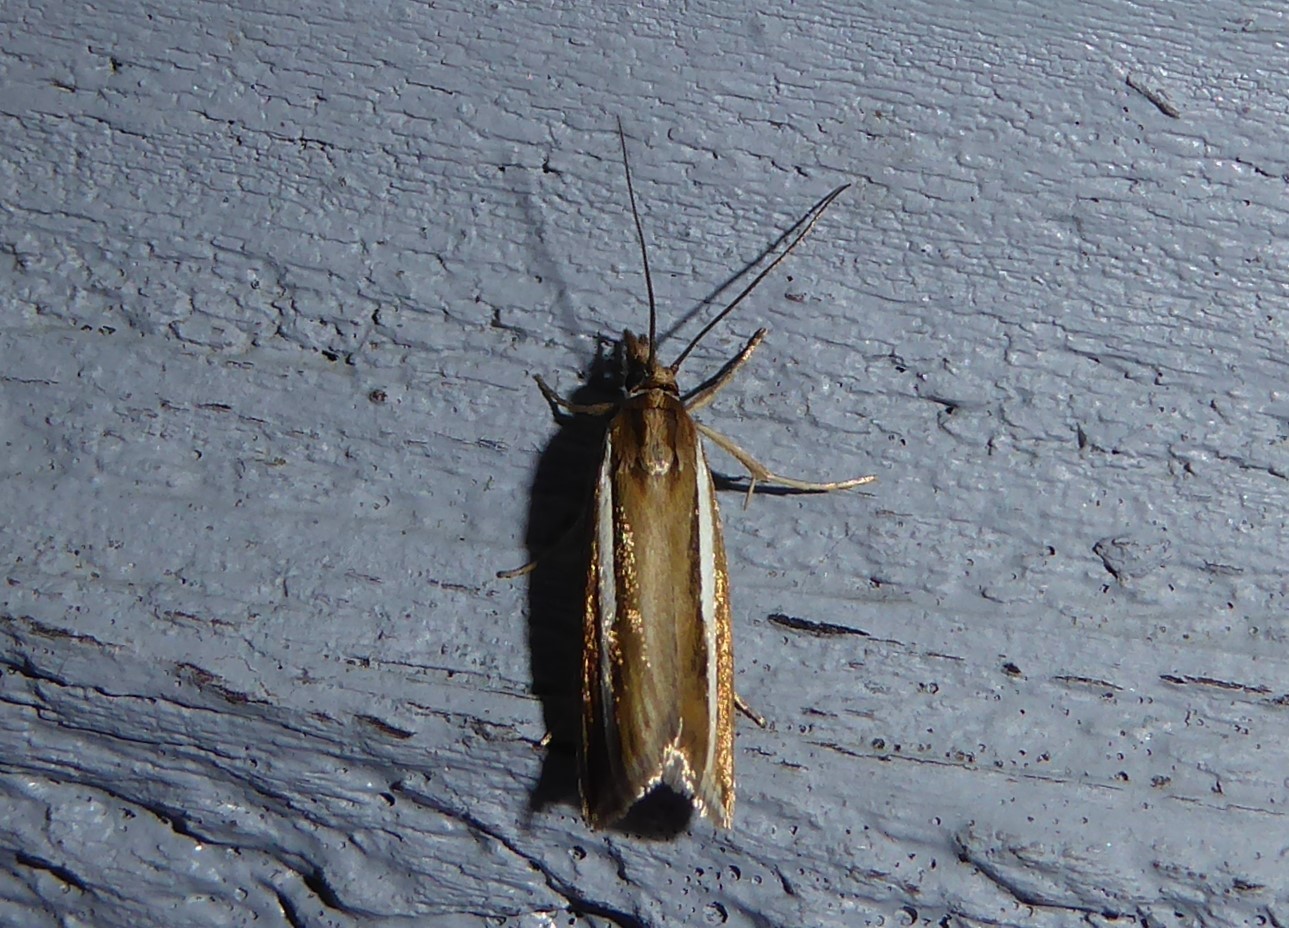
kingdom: Animalia
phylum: Arthropoda
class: Insecta
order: Lepidoptera
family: Crambidae
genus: Orocrambus
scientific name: Orocrambus aethonellus
